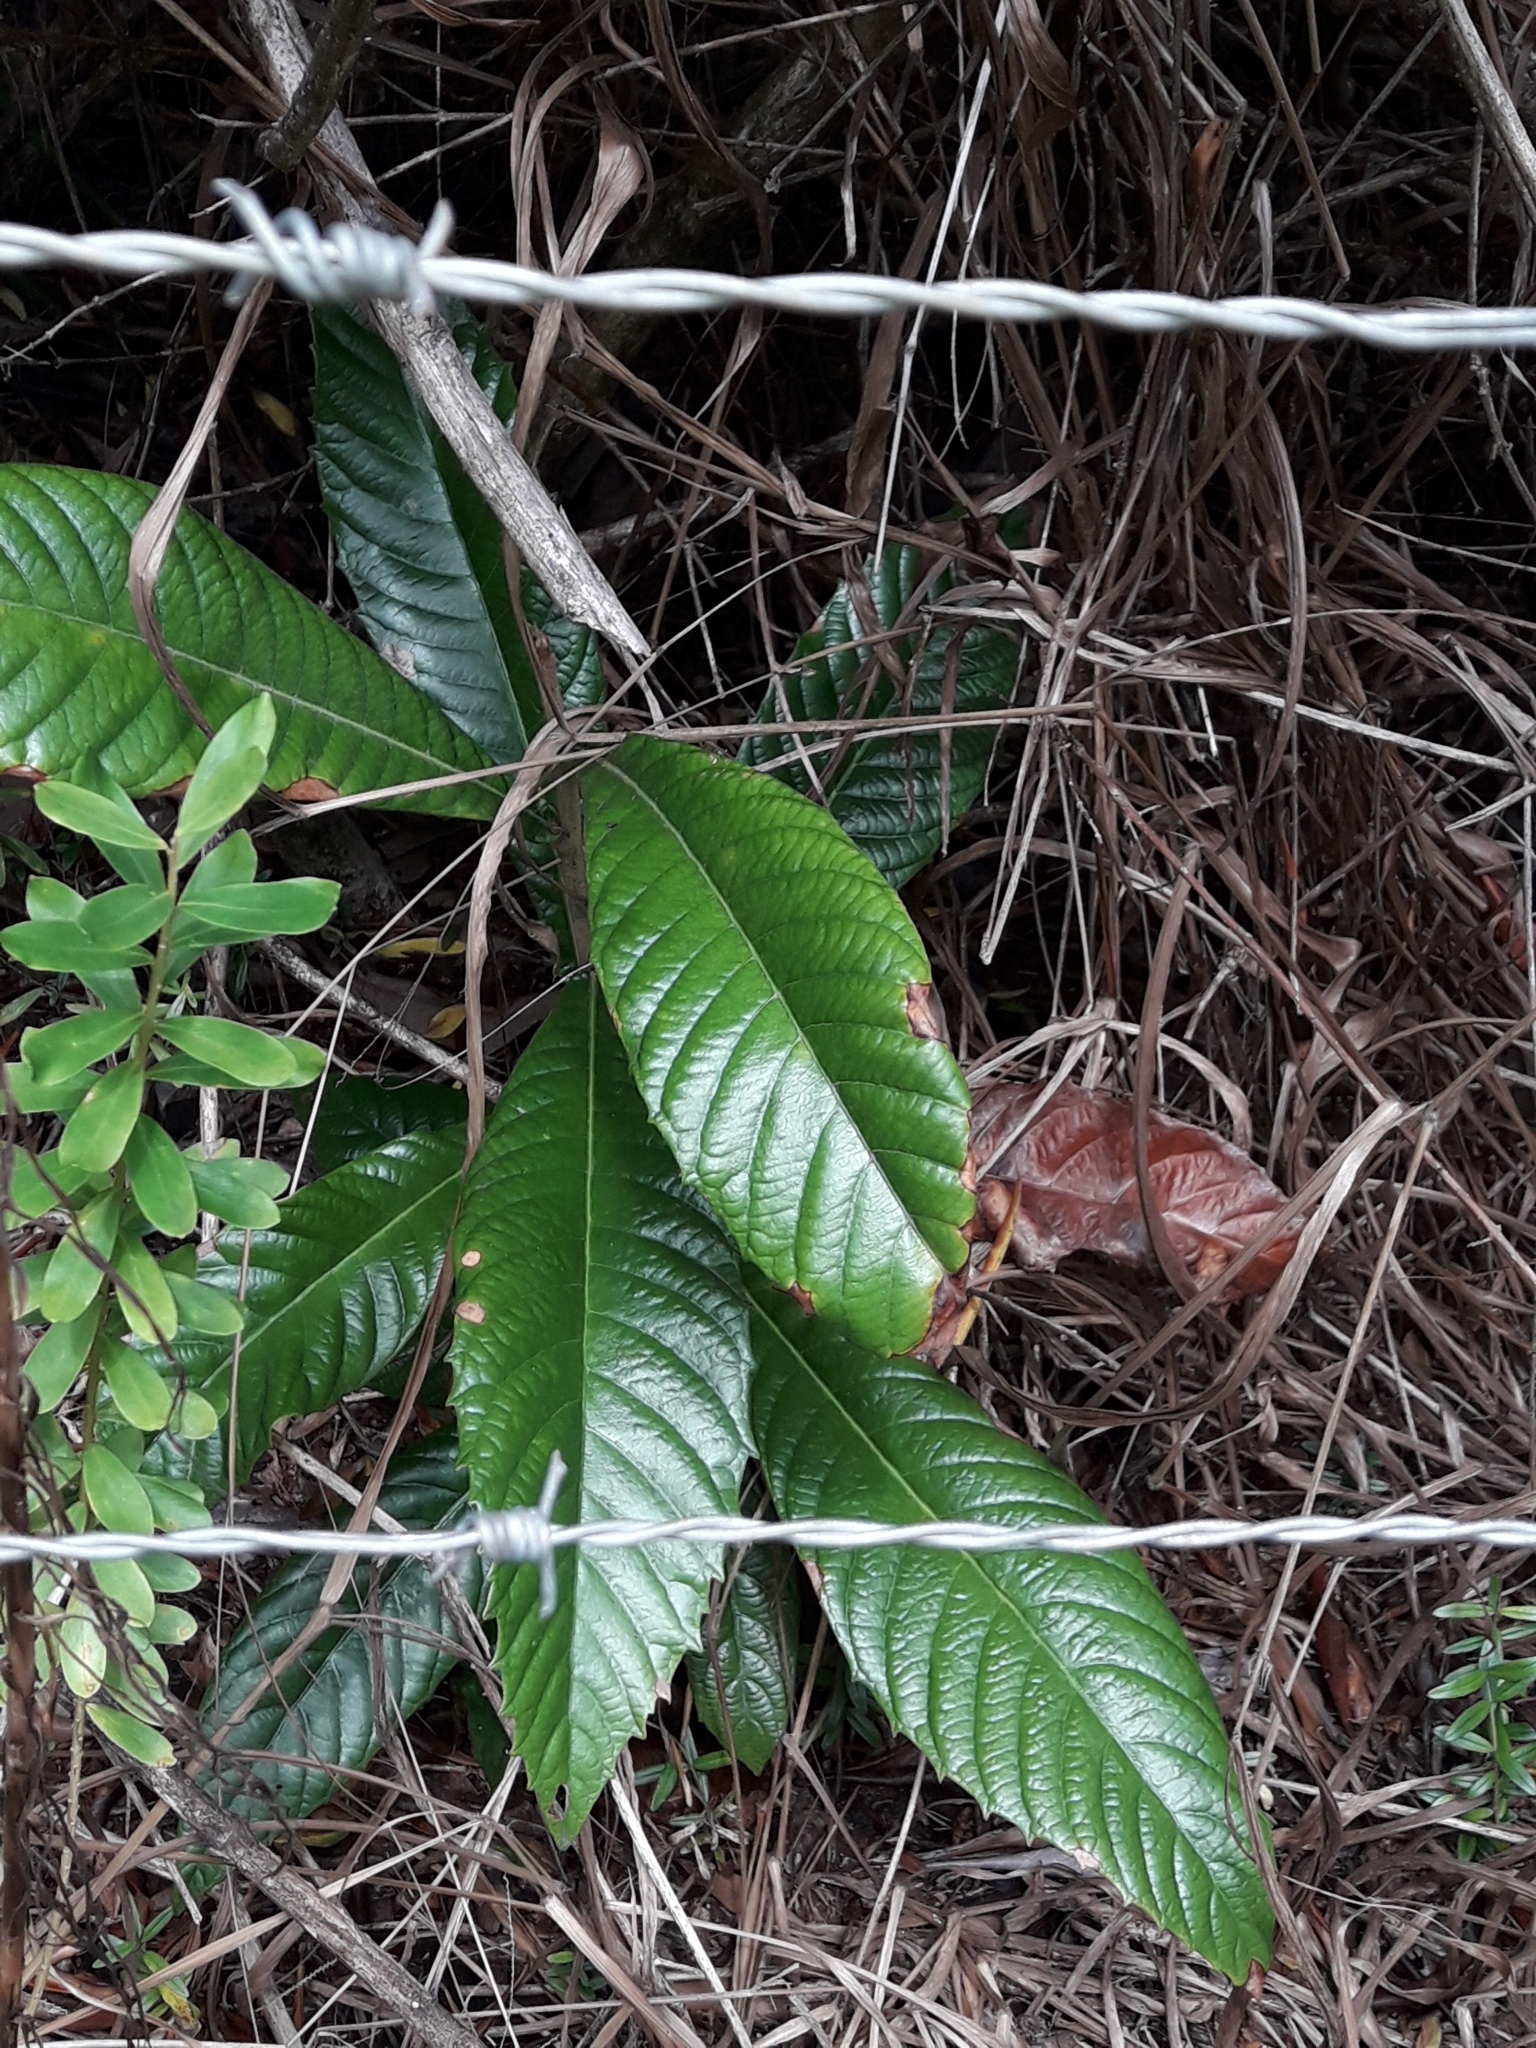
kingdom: Plantae
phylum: Tracheophyta
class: Magnoliopsida
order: Rosales
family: Rosaceae
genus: Rhaphiolepis
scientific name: Rhaphiolepis bibas
